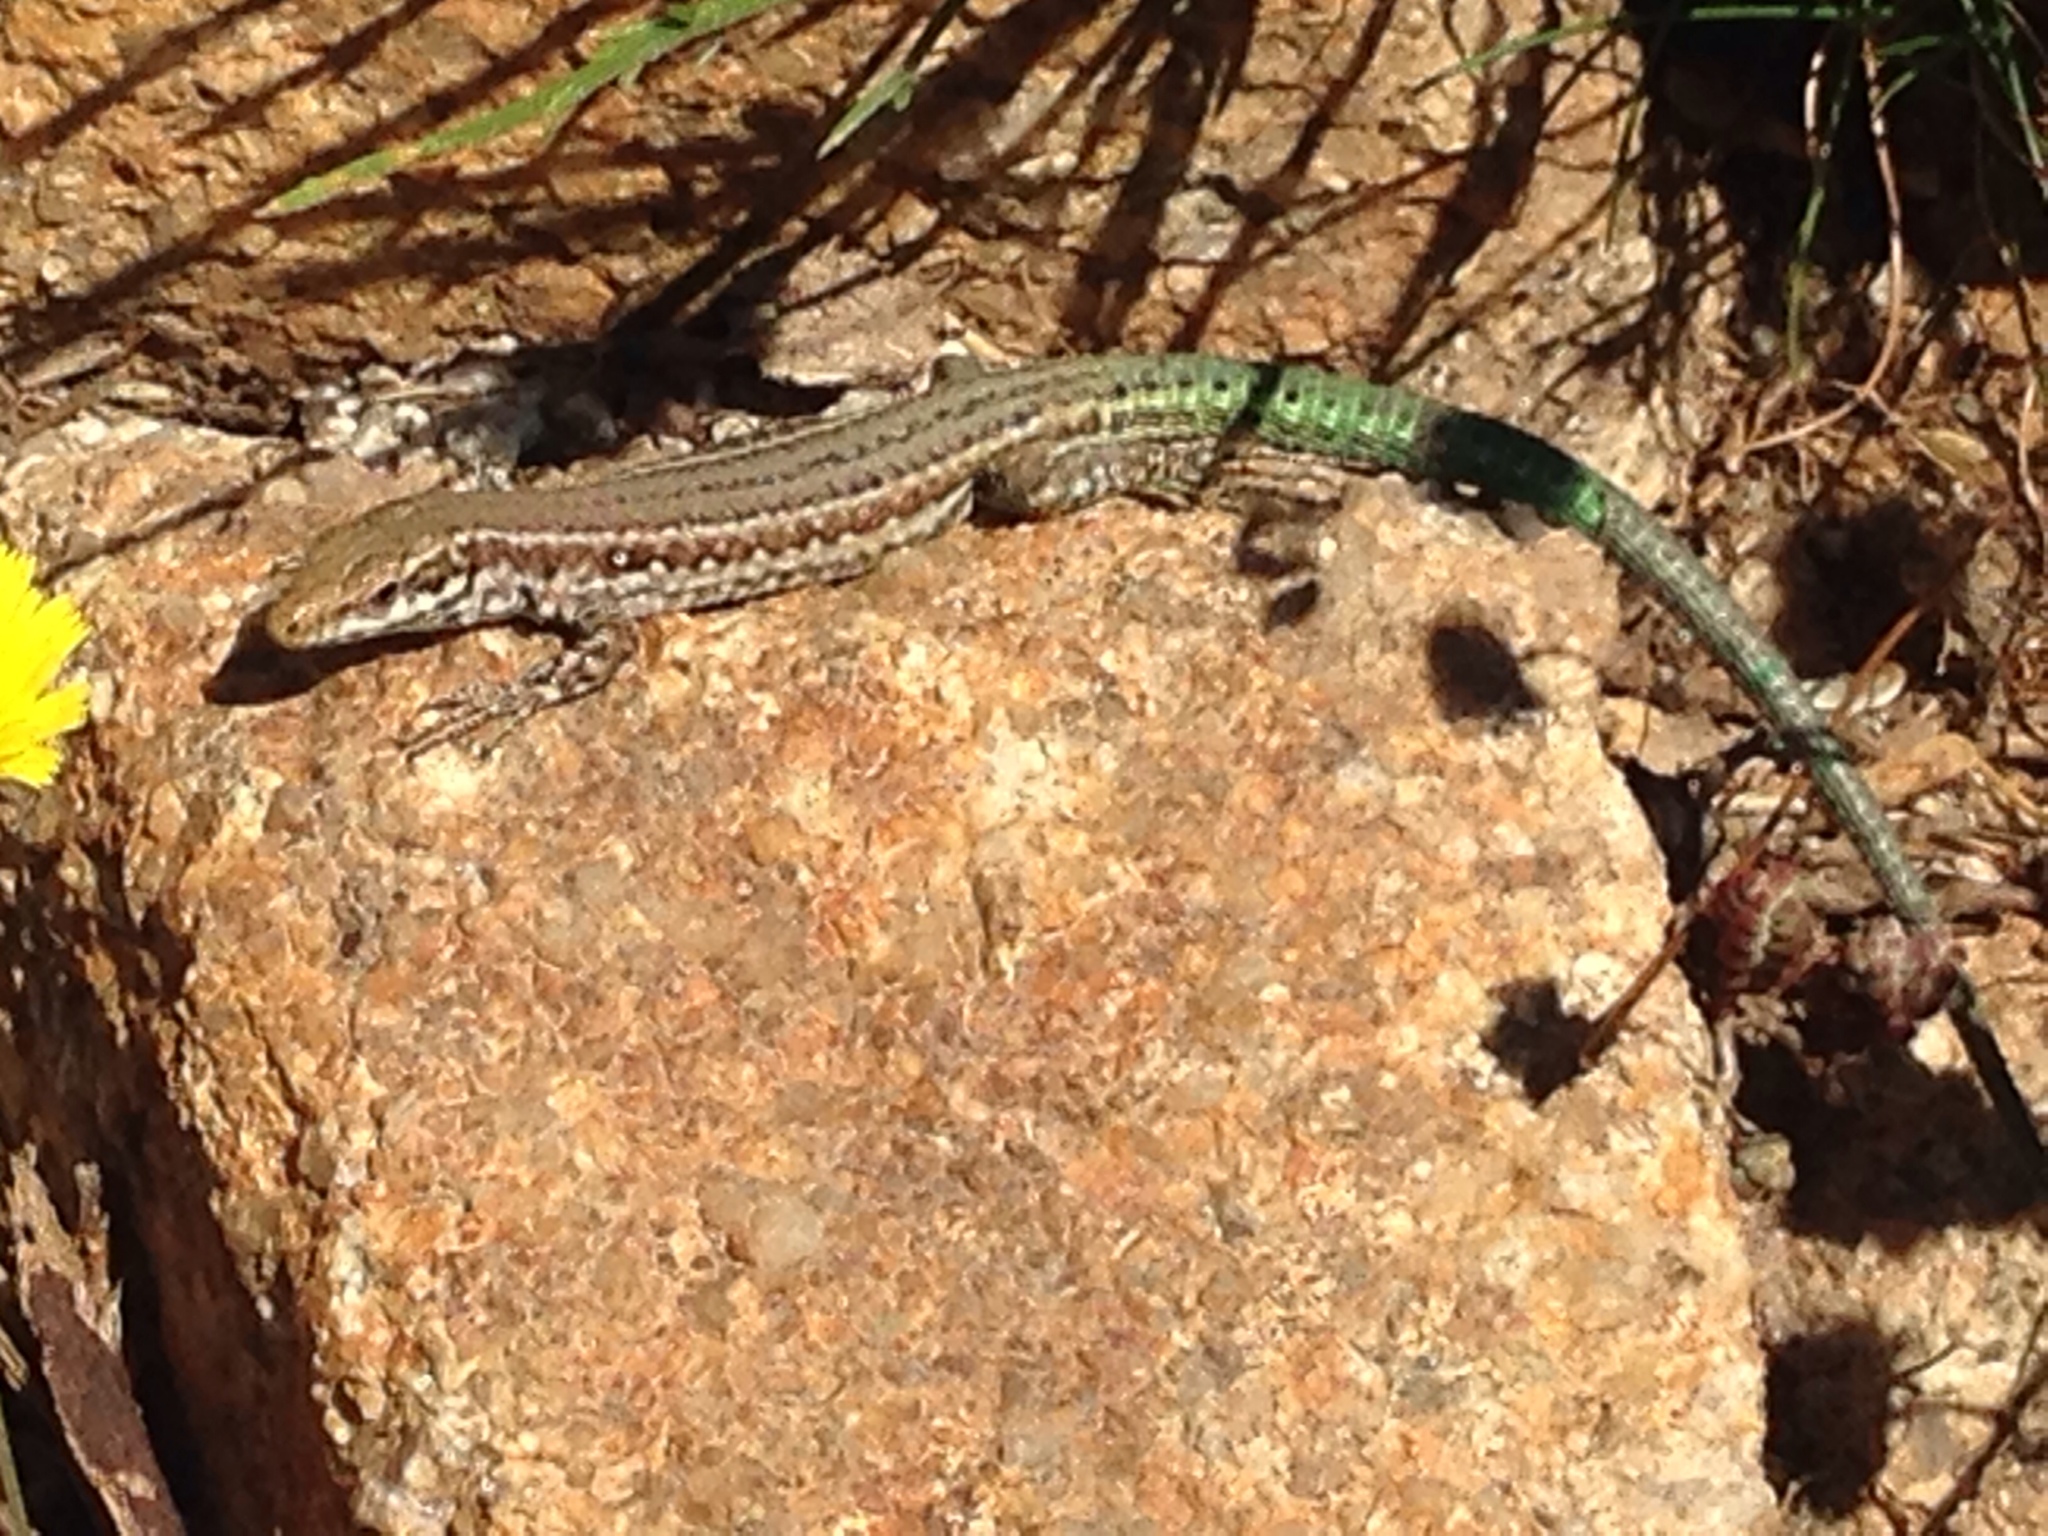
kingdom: Animalia
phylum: Chordata
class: Squamata
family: Lacertidae
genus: Podarcis
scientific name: Podarcis tiliguerta
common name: Tyrrhenian wall lizard
